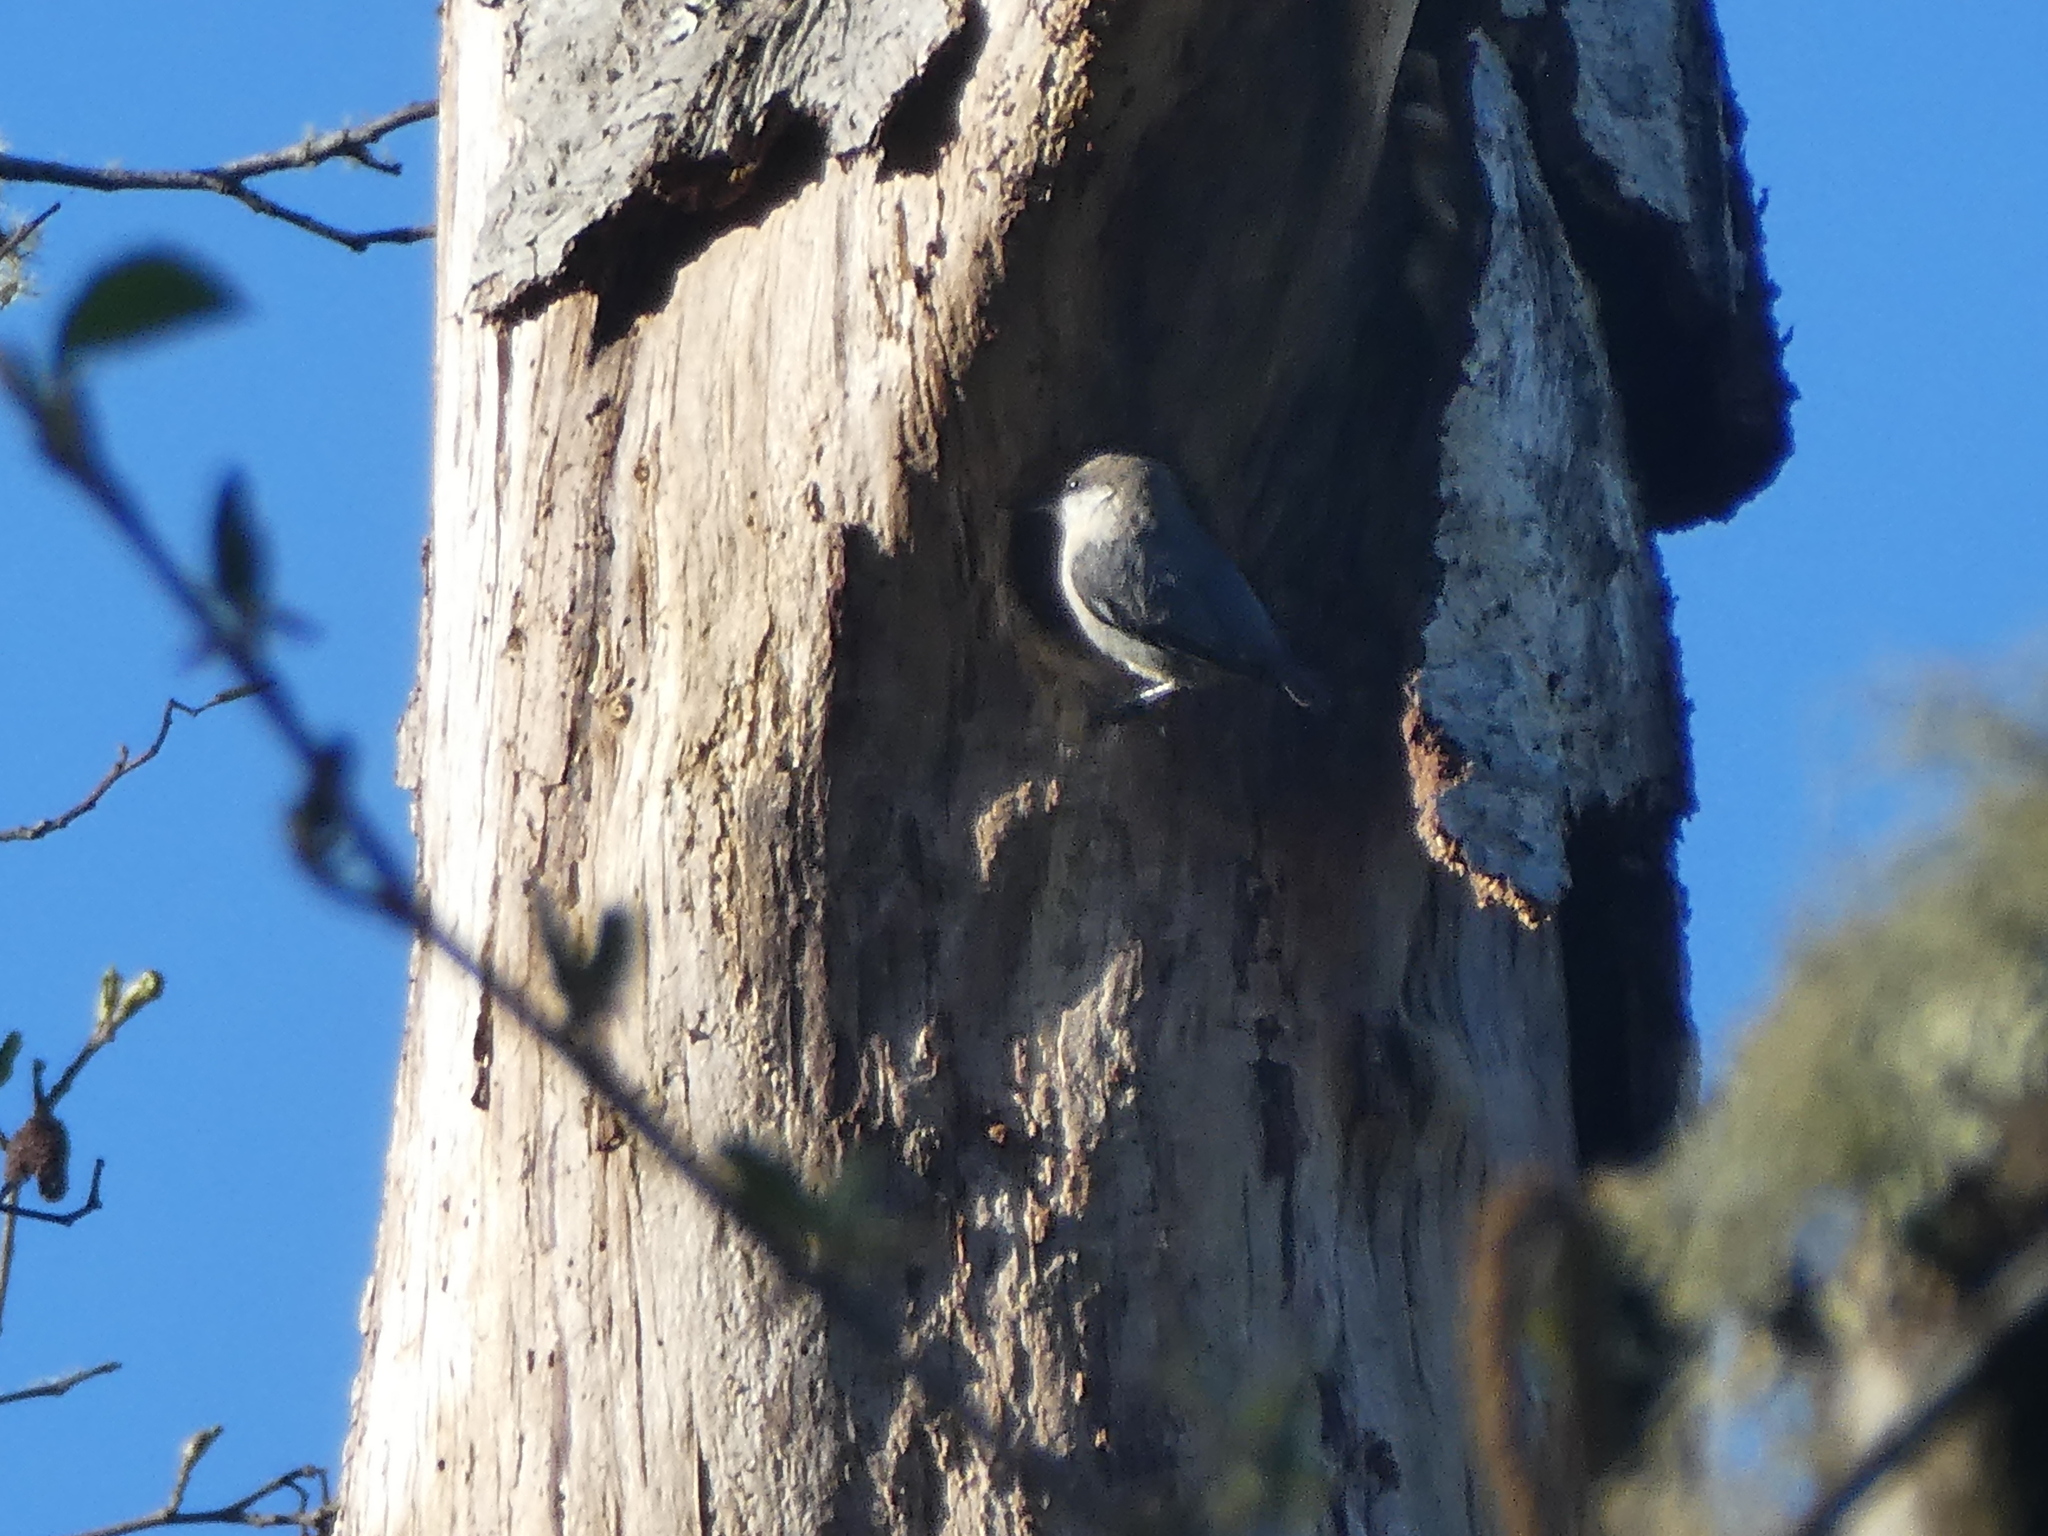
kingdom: Animalia
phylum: Chordata
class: Aves
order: Passeriformes
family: Sittidae
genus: Sitta
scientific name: Sitta pygmaea
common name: Pygmy nuthatch
